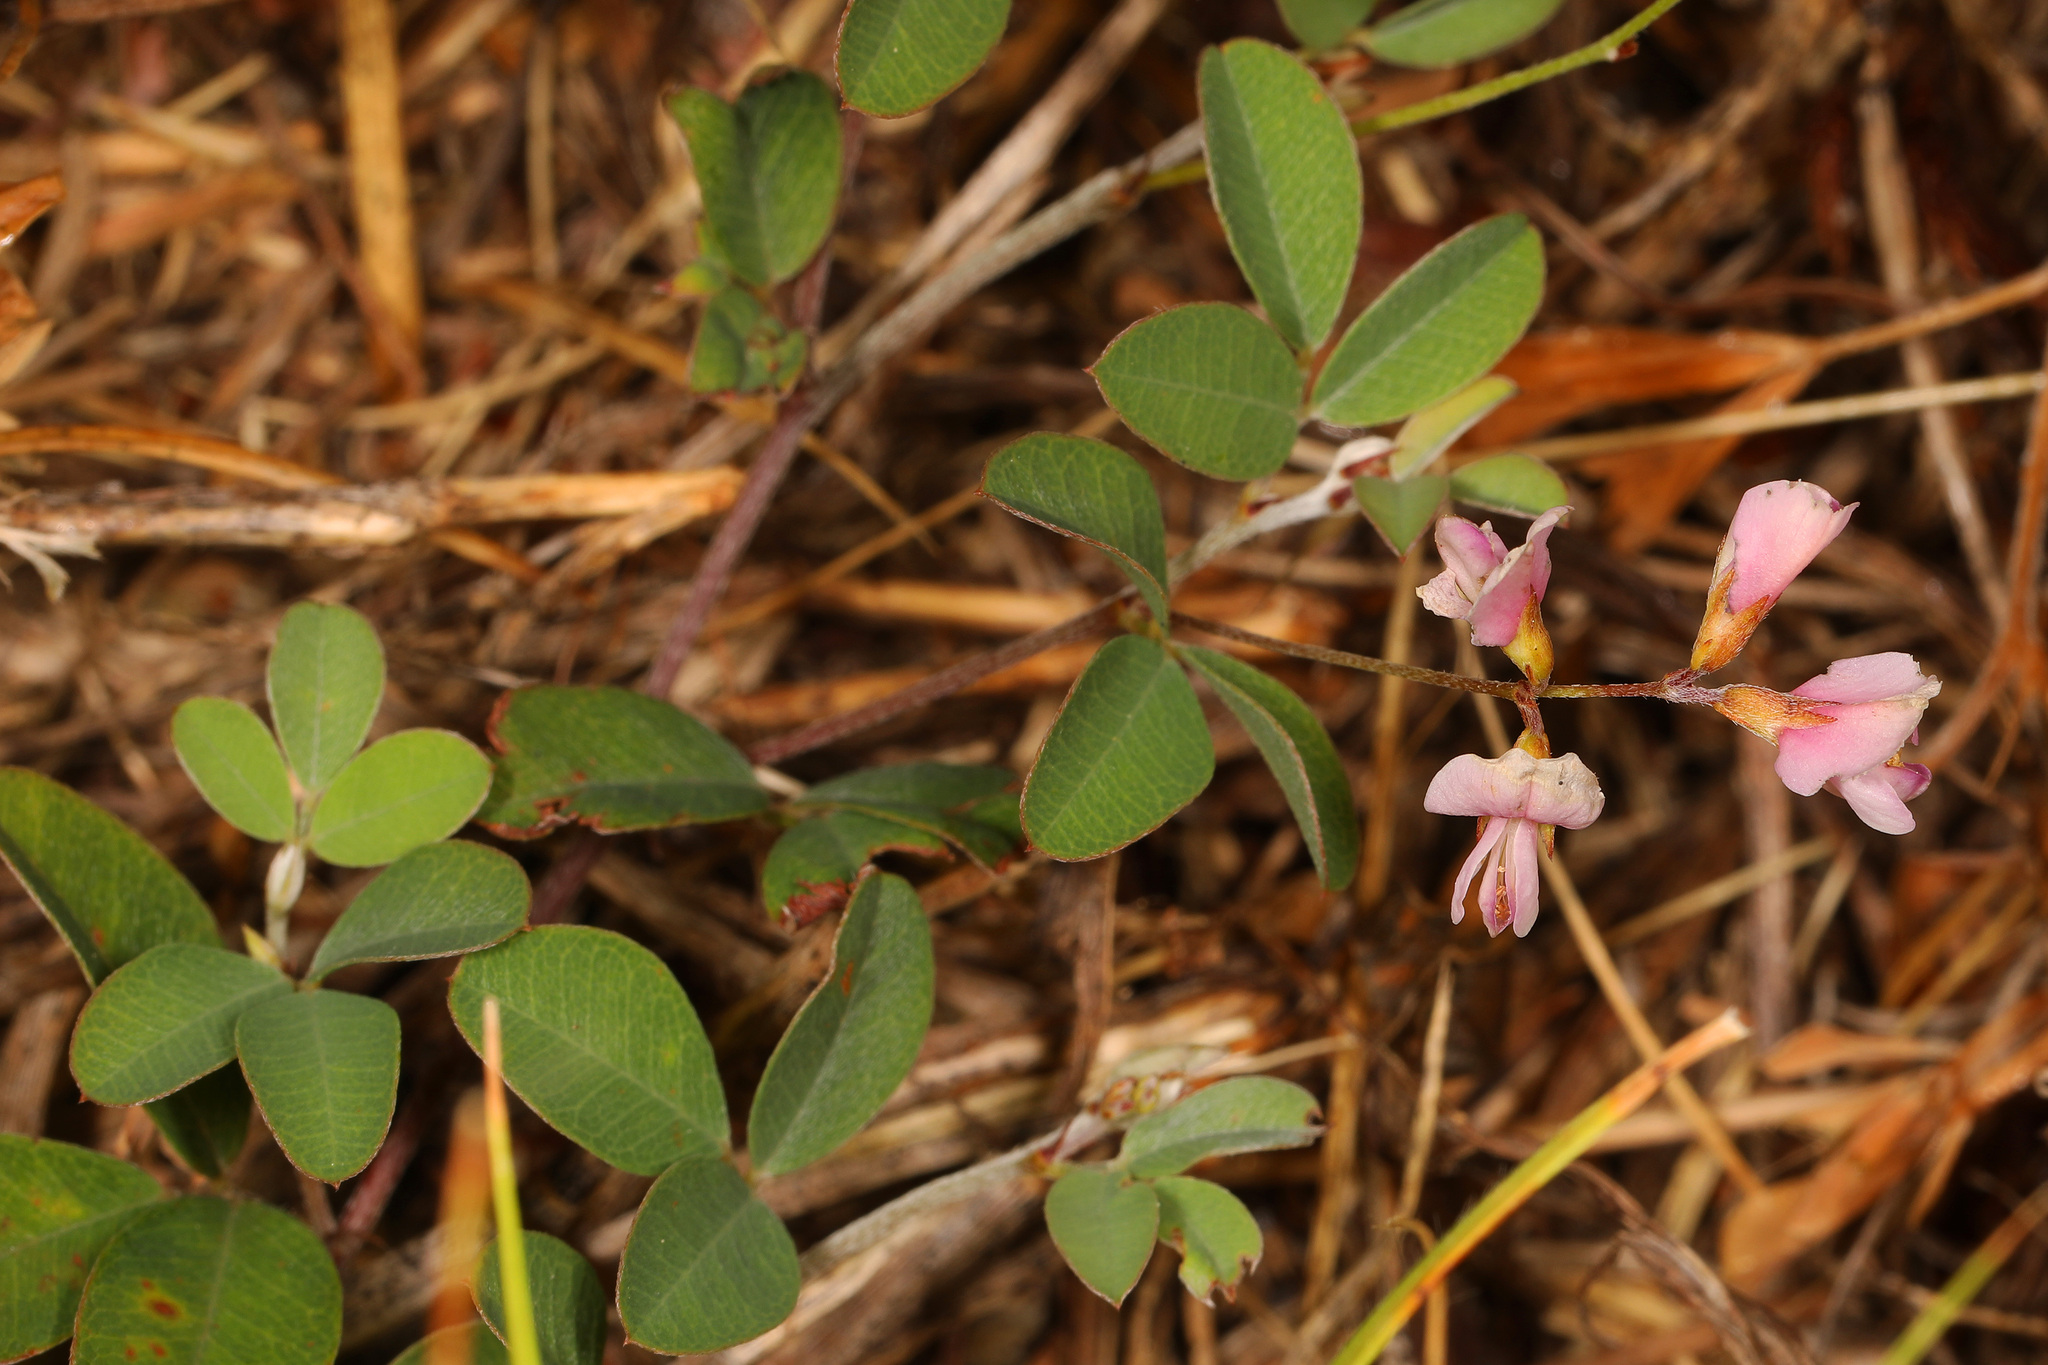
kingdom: Plantae
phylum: Tracheophyta
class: Magnoliopsida
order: Fabales
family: Fabaceae
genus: Lespedeza
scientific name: Lespedeza repens
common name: Creeping bush-clover
